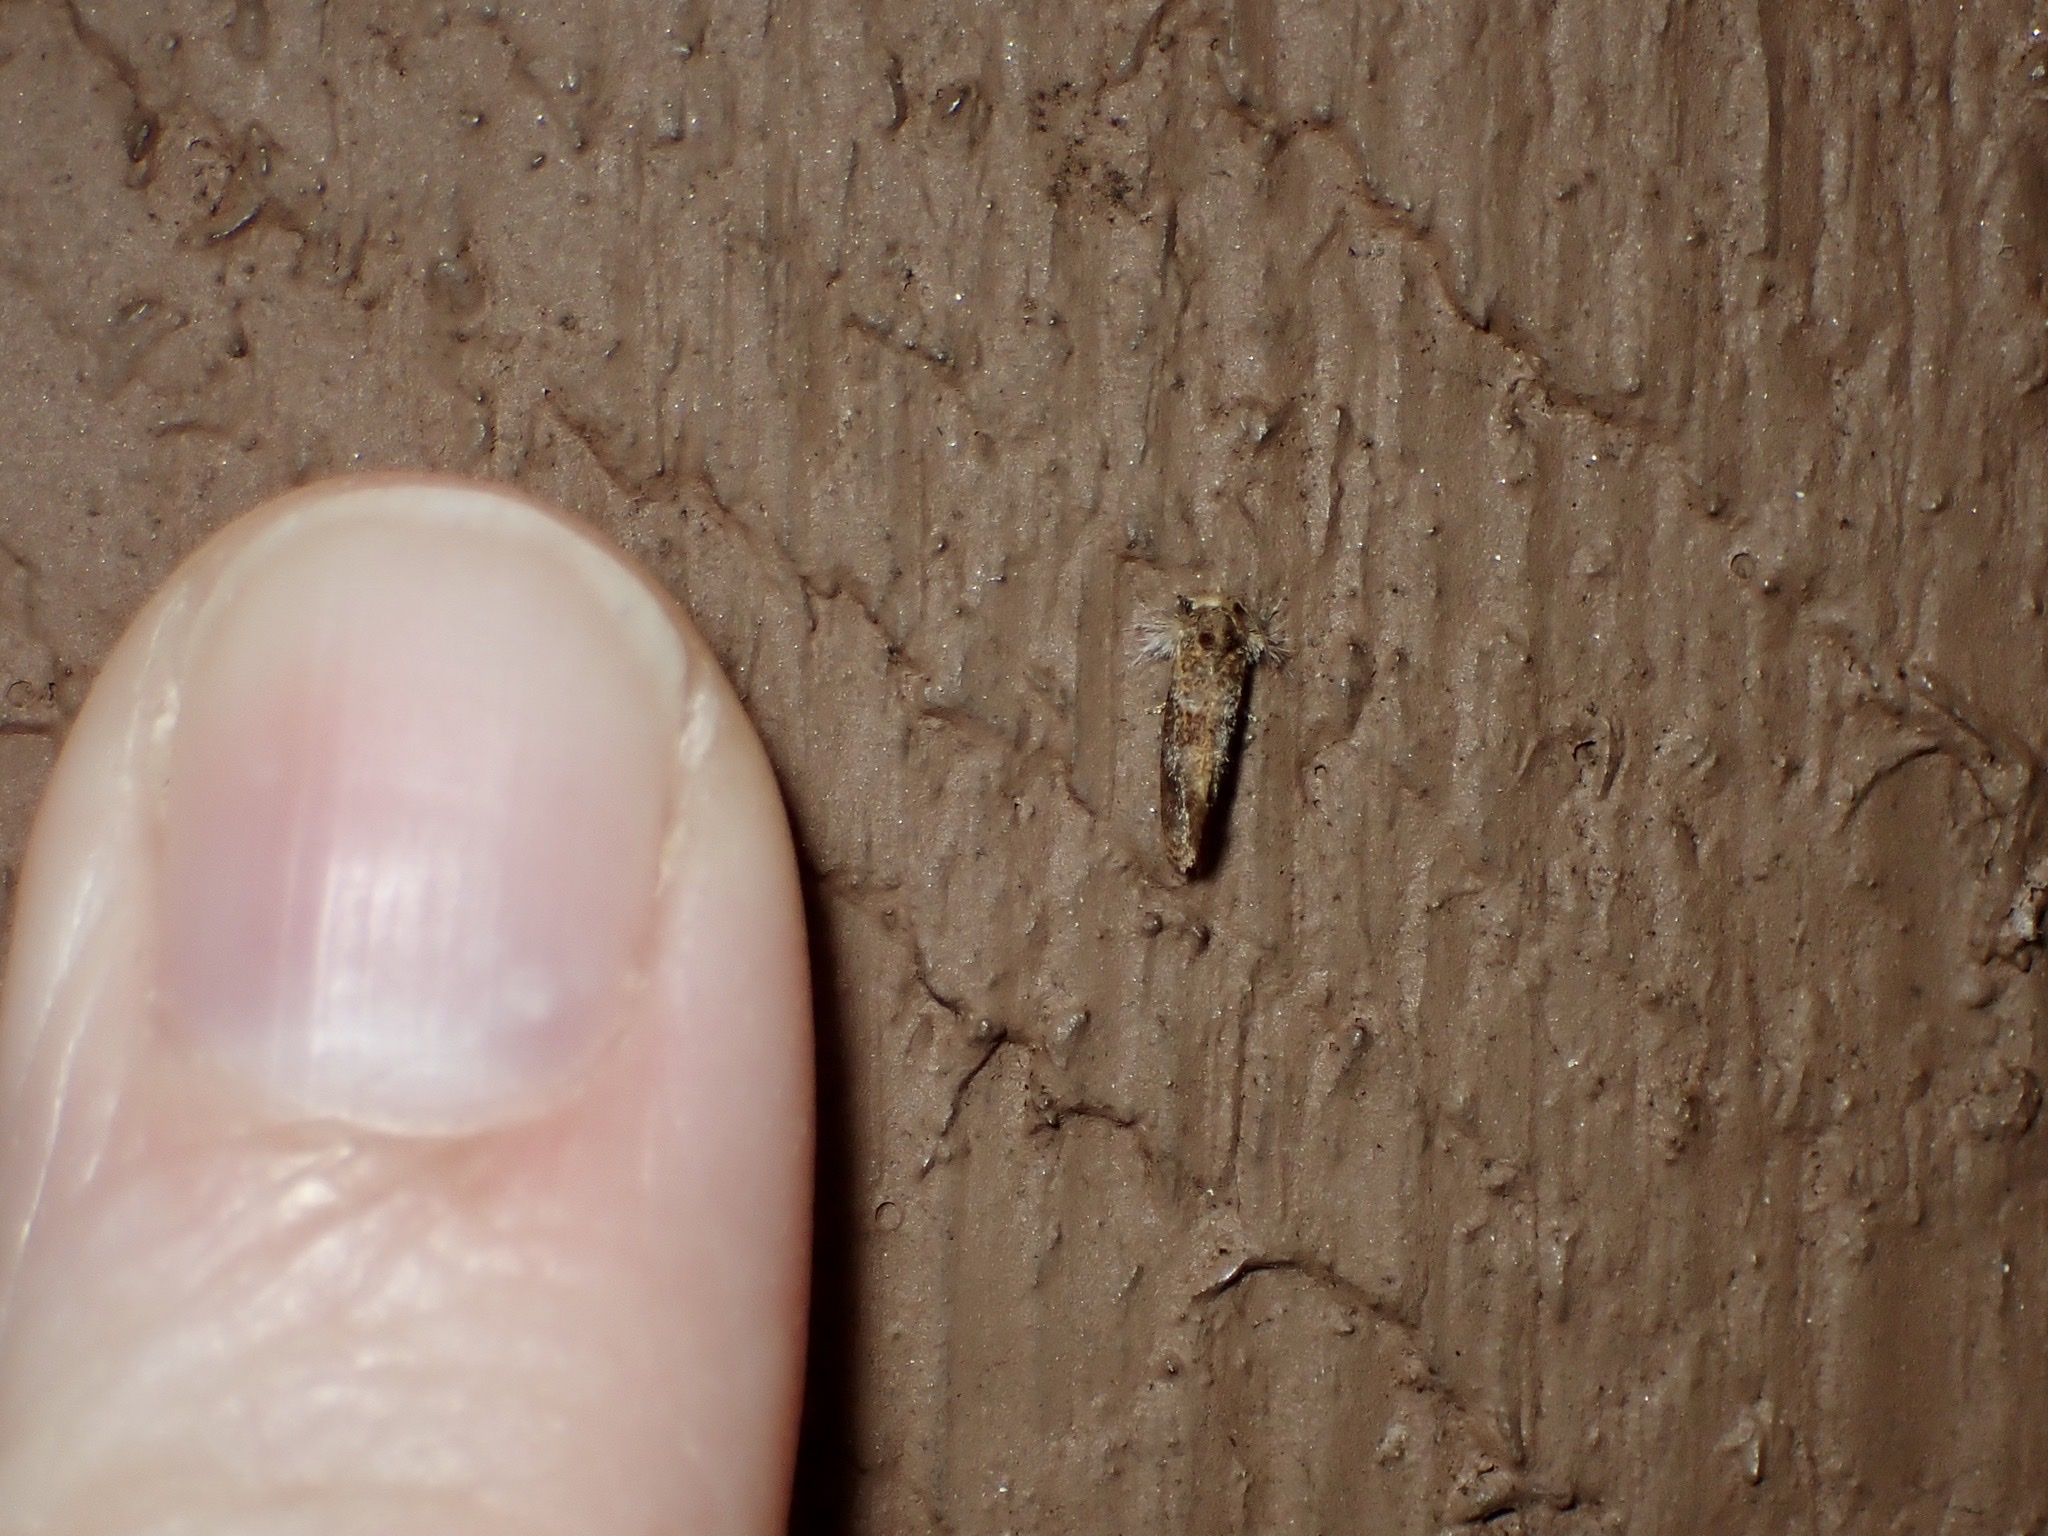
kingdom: Animalia
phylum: Arthropoda
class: Insecta
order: Lepidoptera
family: Tineidae
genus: Acrolophus
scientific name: Acrolophus panamae
